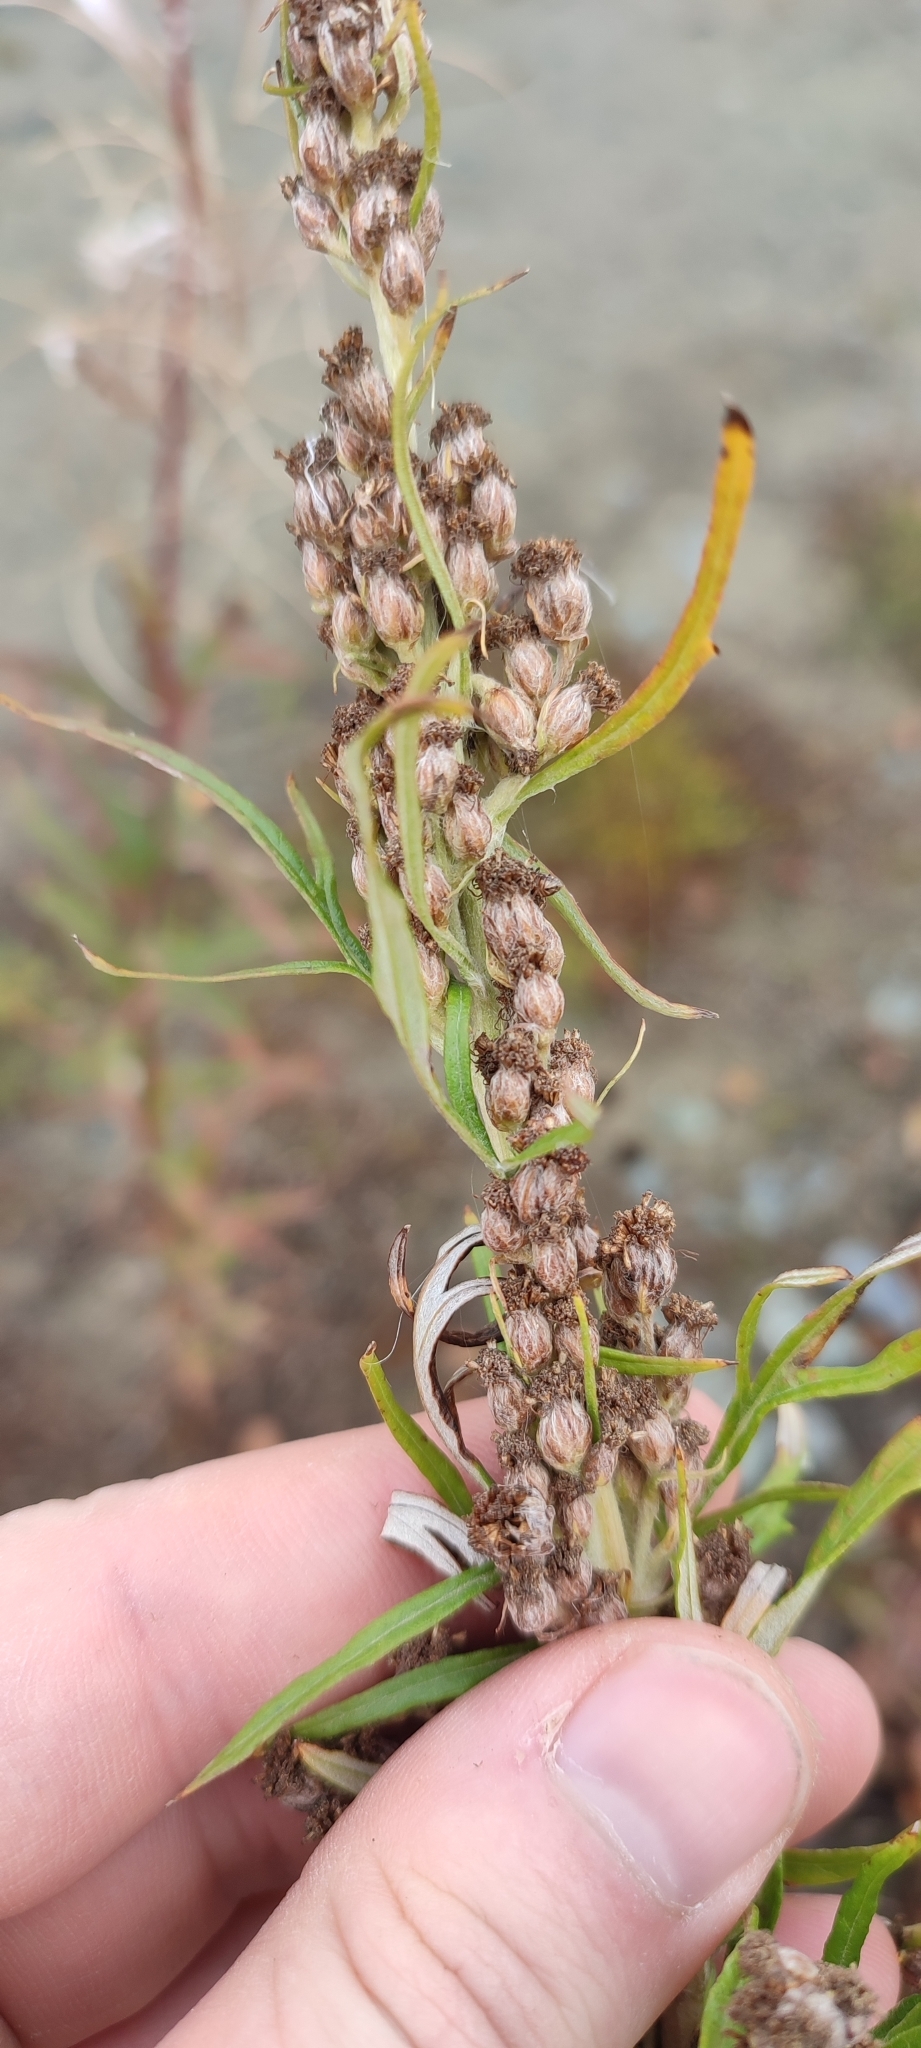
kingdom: Plantae
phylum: Tracheophyta
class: Magnoliopsida
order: Asterales
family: Asteraceae
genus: Artemisia
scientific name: Artemisia tilesii
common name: Aleutian mugwort
